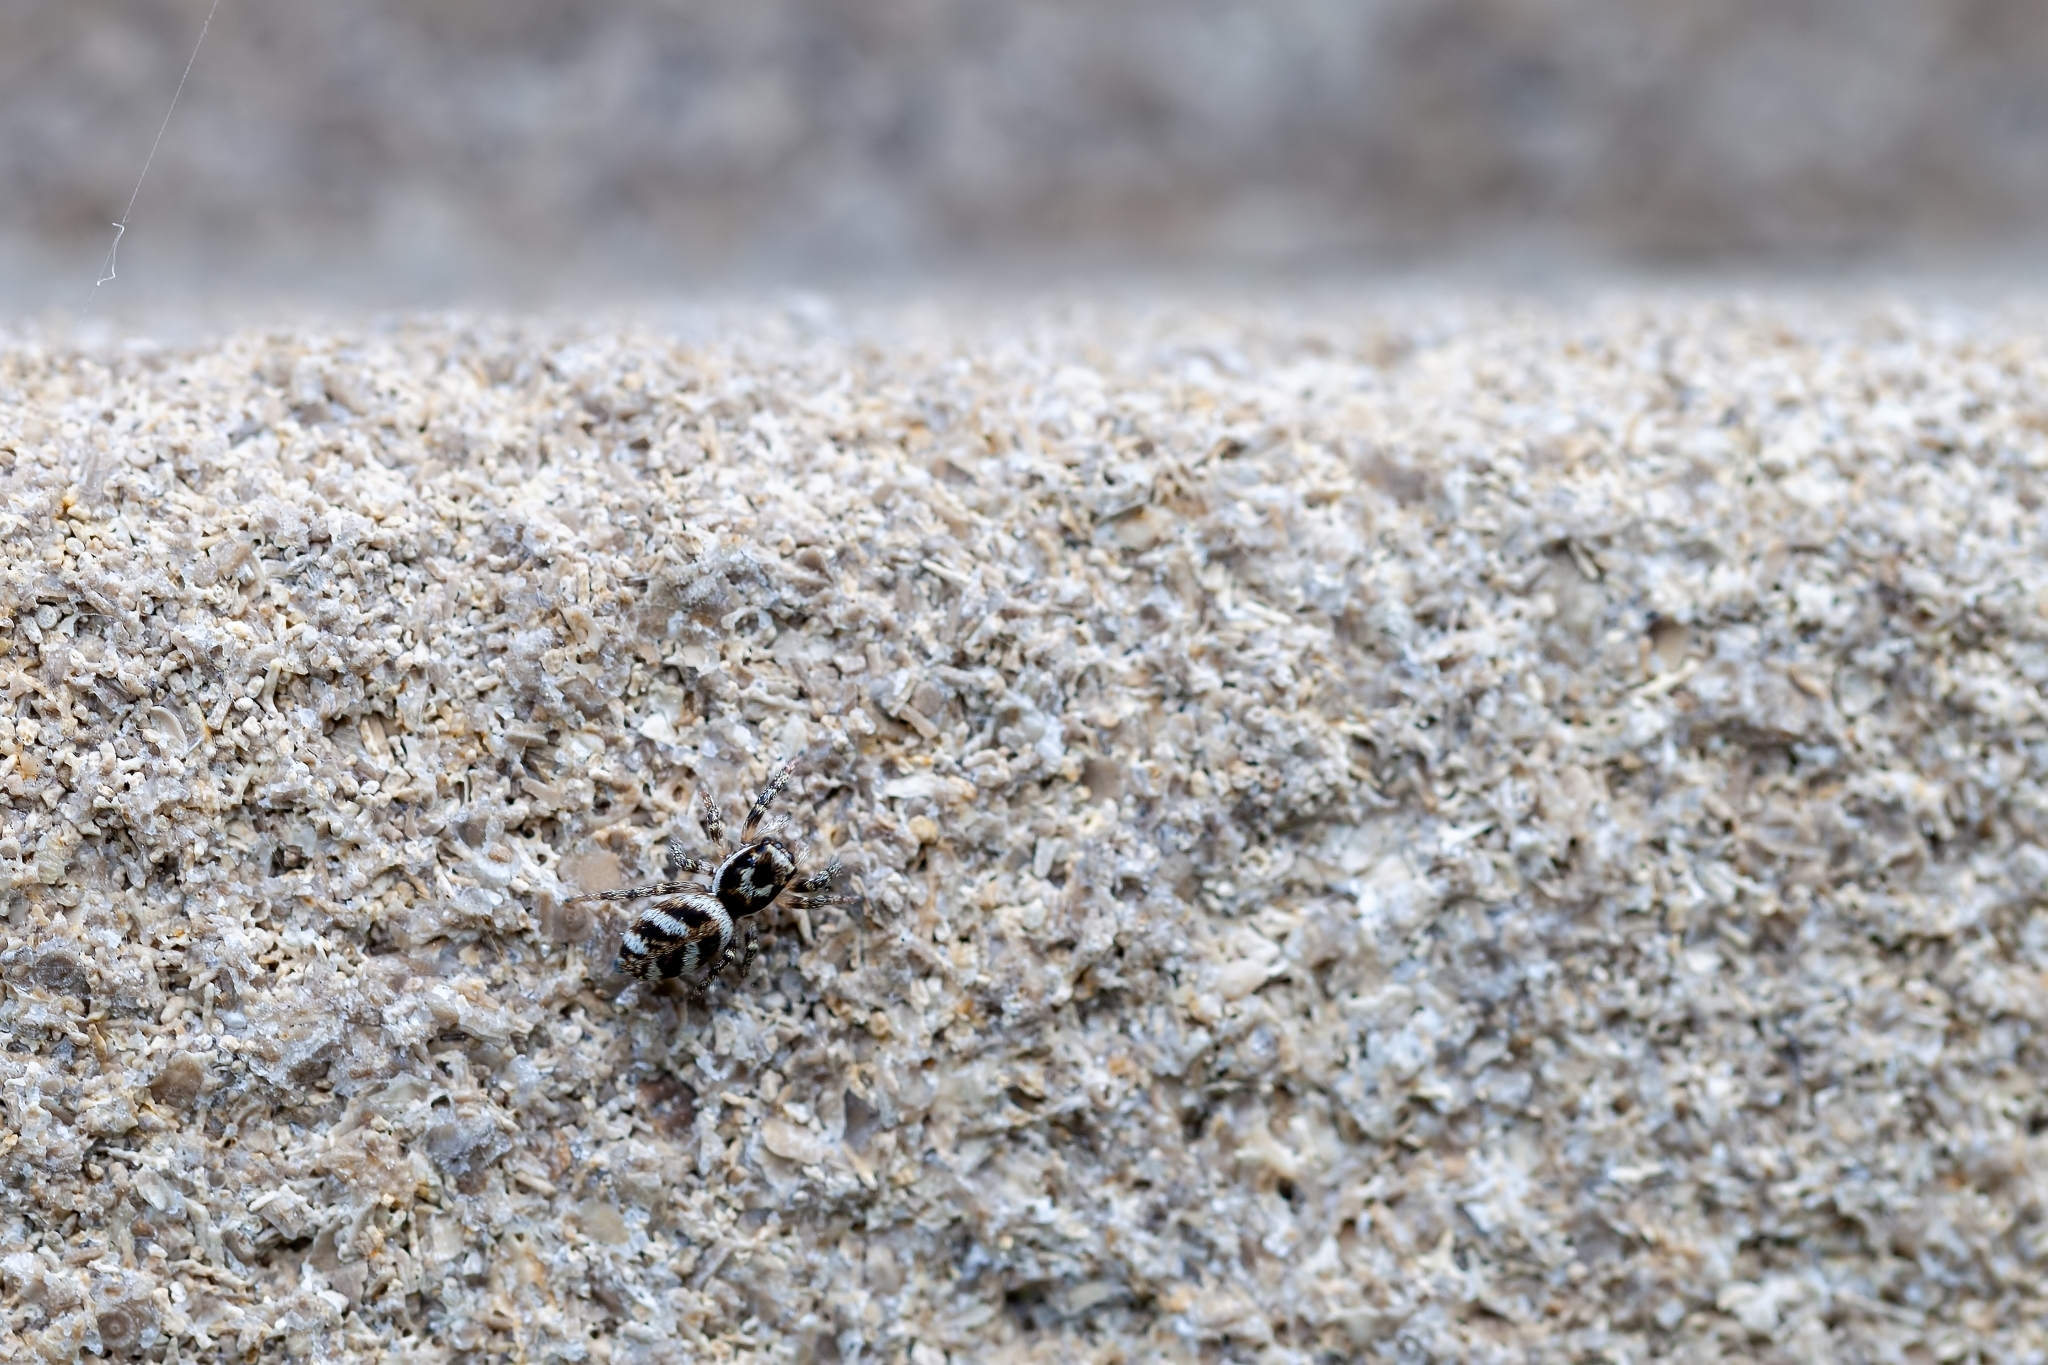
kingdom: Animalia
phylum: Arthropoda
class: Arachnida
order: Araneae
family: Salticidae
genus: Salticus
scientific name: Salticus scenicus
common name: Zebra jumper
